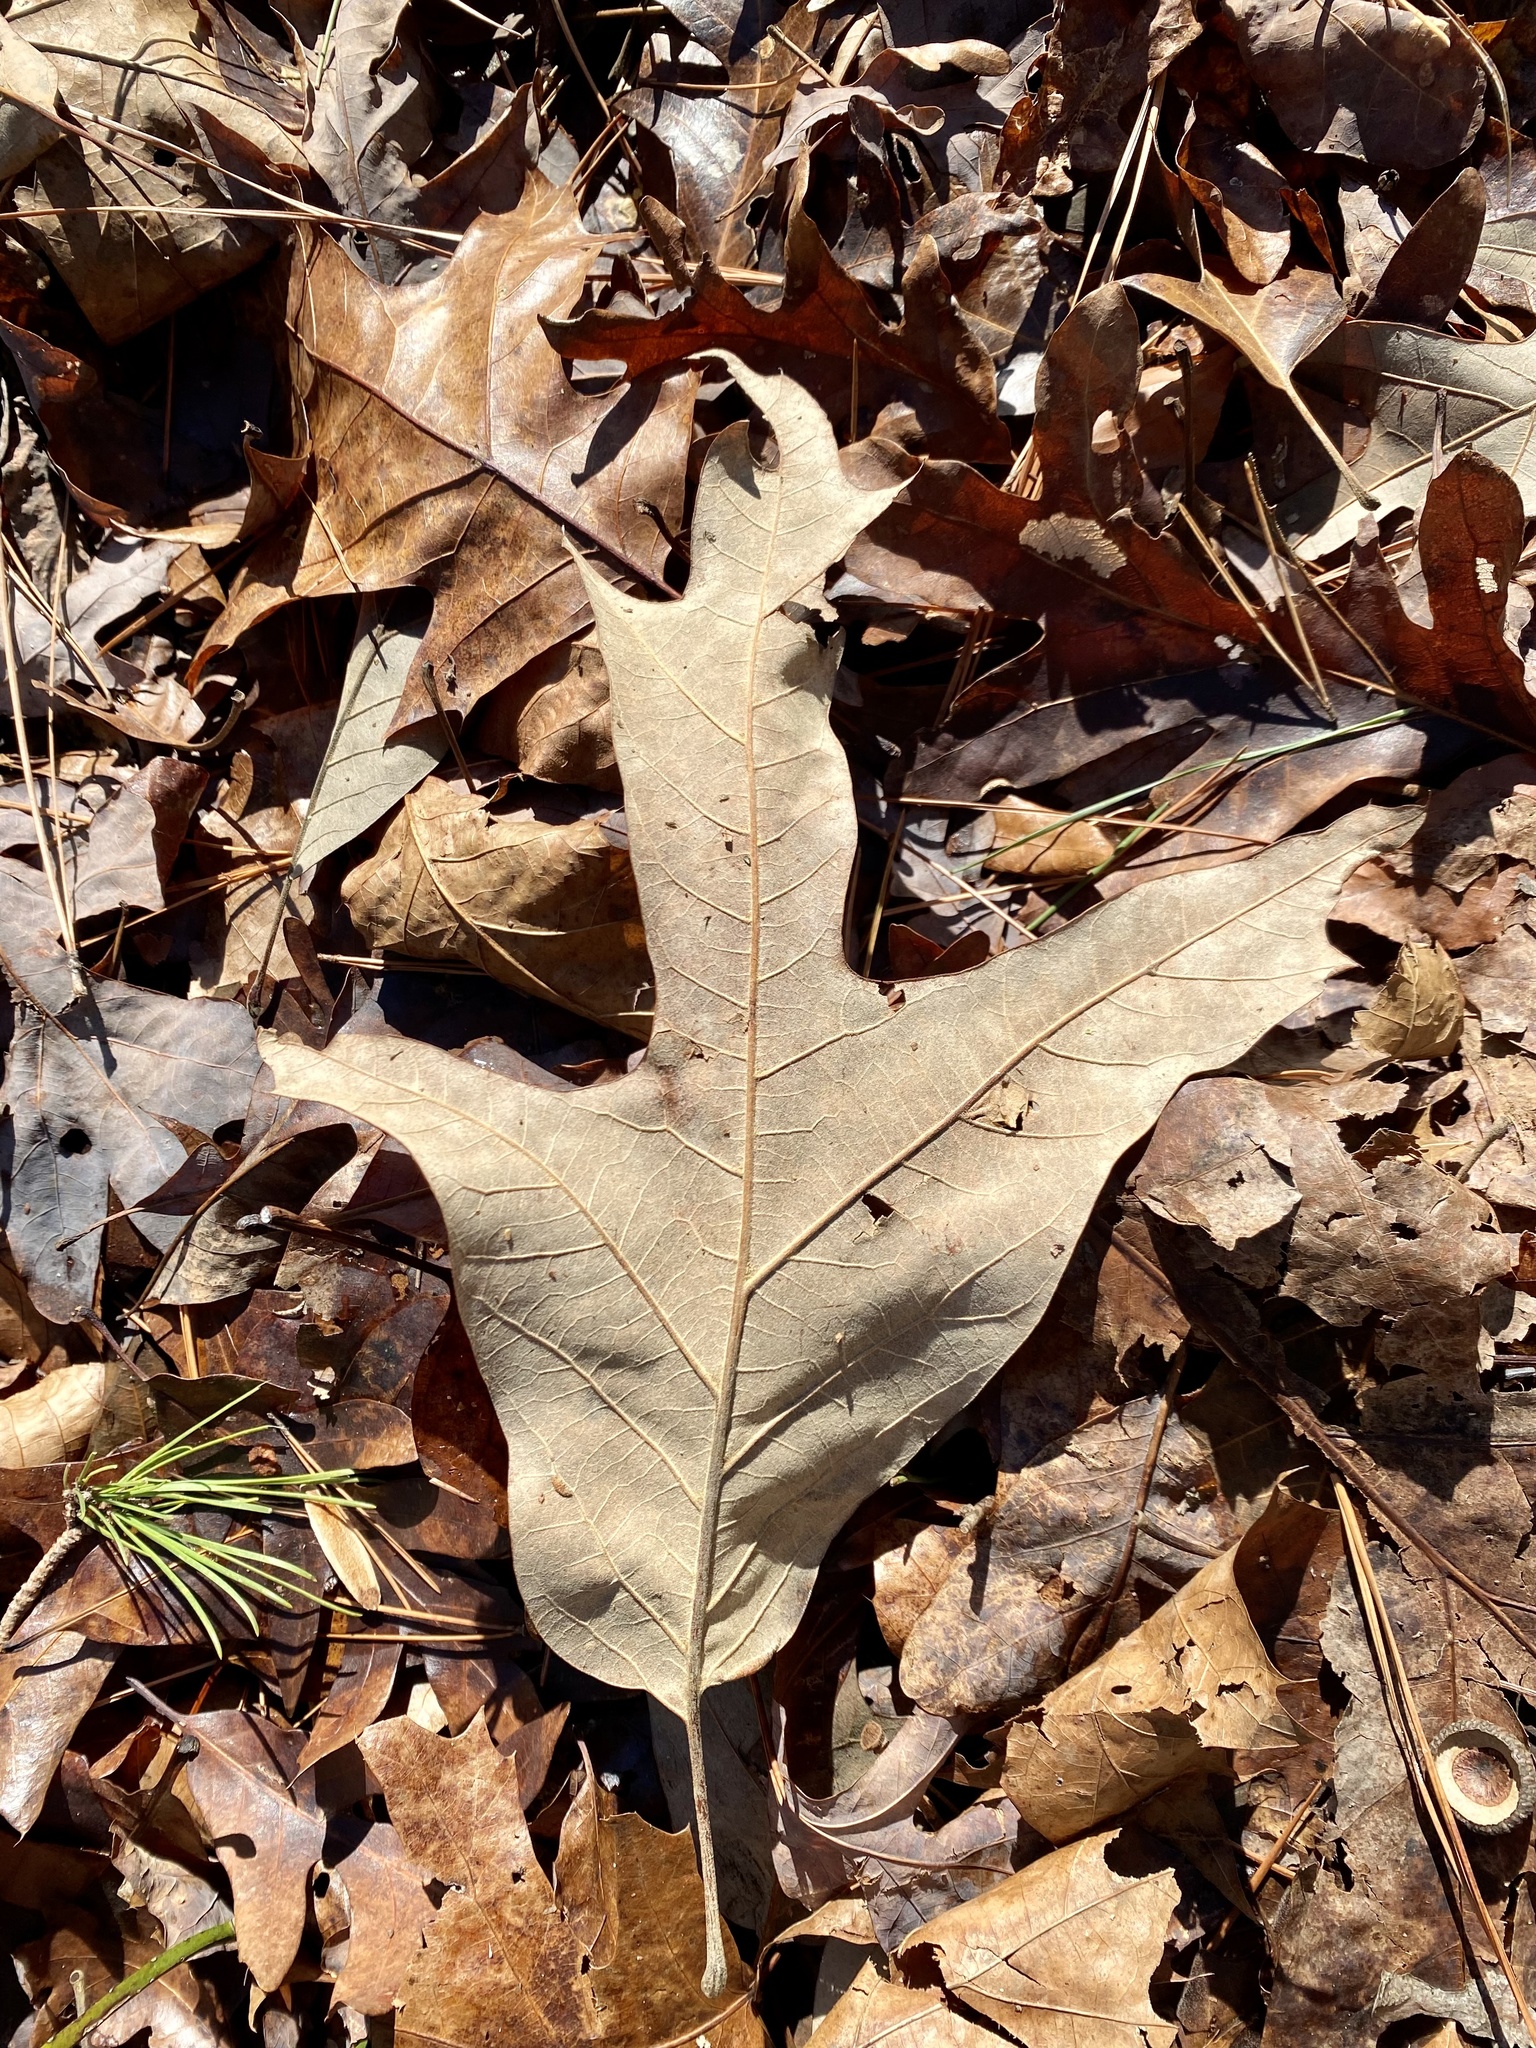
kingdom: Plantae
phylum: Tracheophyta
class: Magnoliopsida
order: Fagales
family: Fagaceae
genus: Quercus
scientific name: Quercus falcata
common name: Southern red oak
